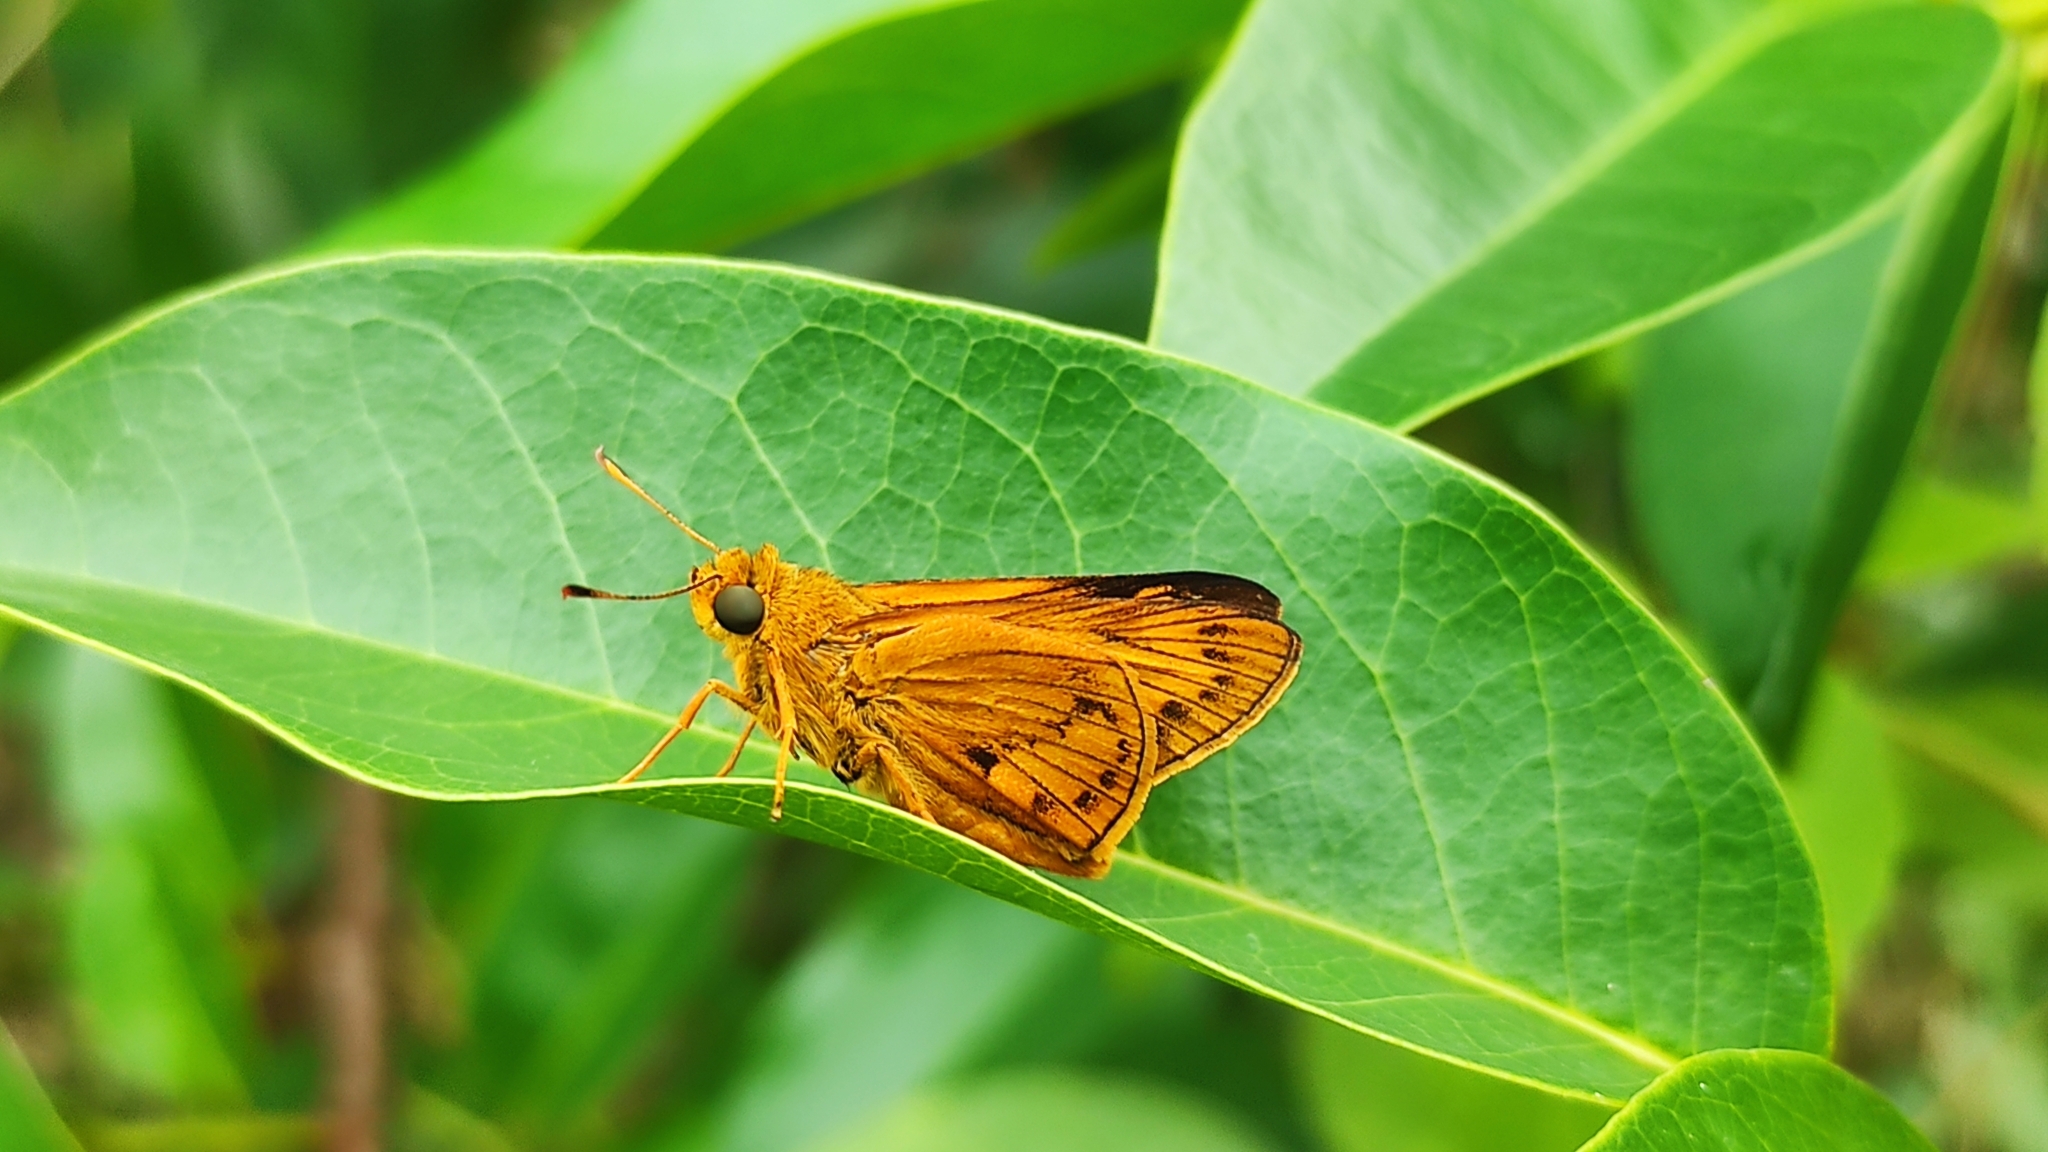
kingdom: Animalia
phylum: Arthropoda
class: Insecta
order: Lepidoptera
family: Hesperiidae
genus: Cephrenes
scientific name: Cephrenes
